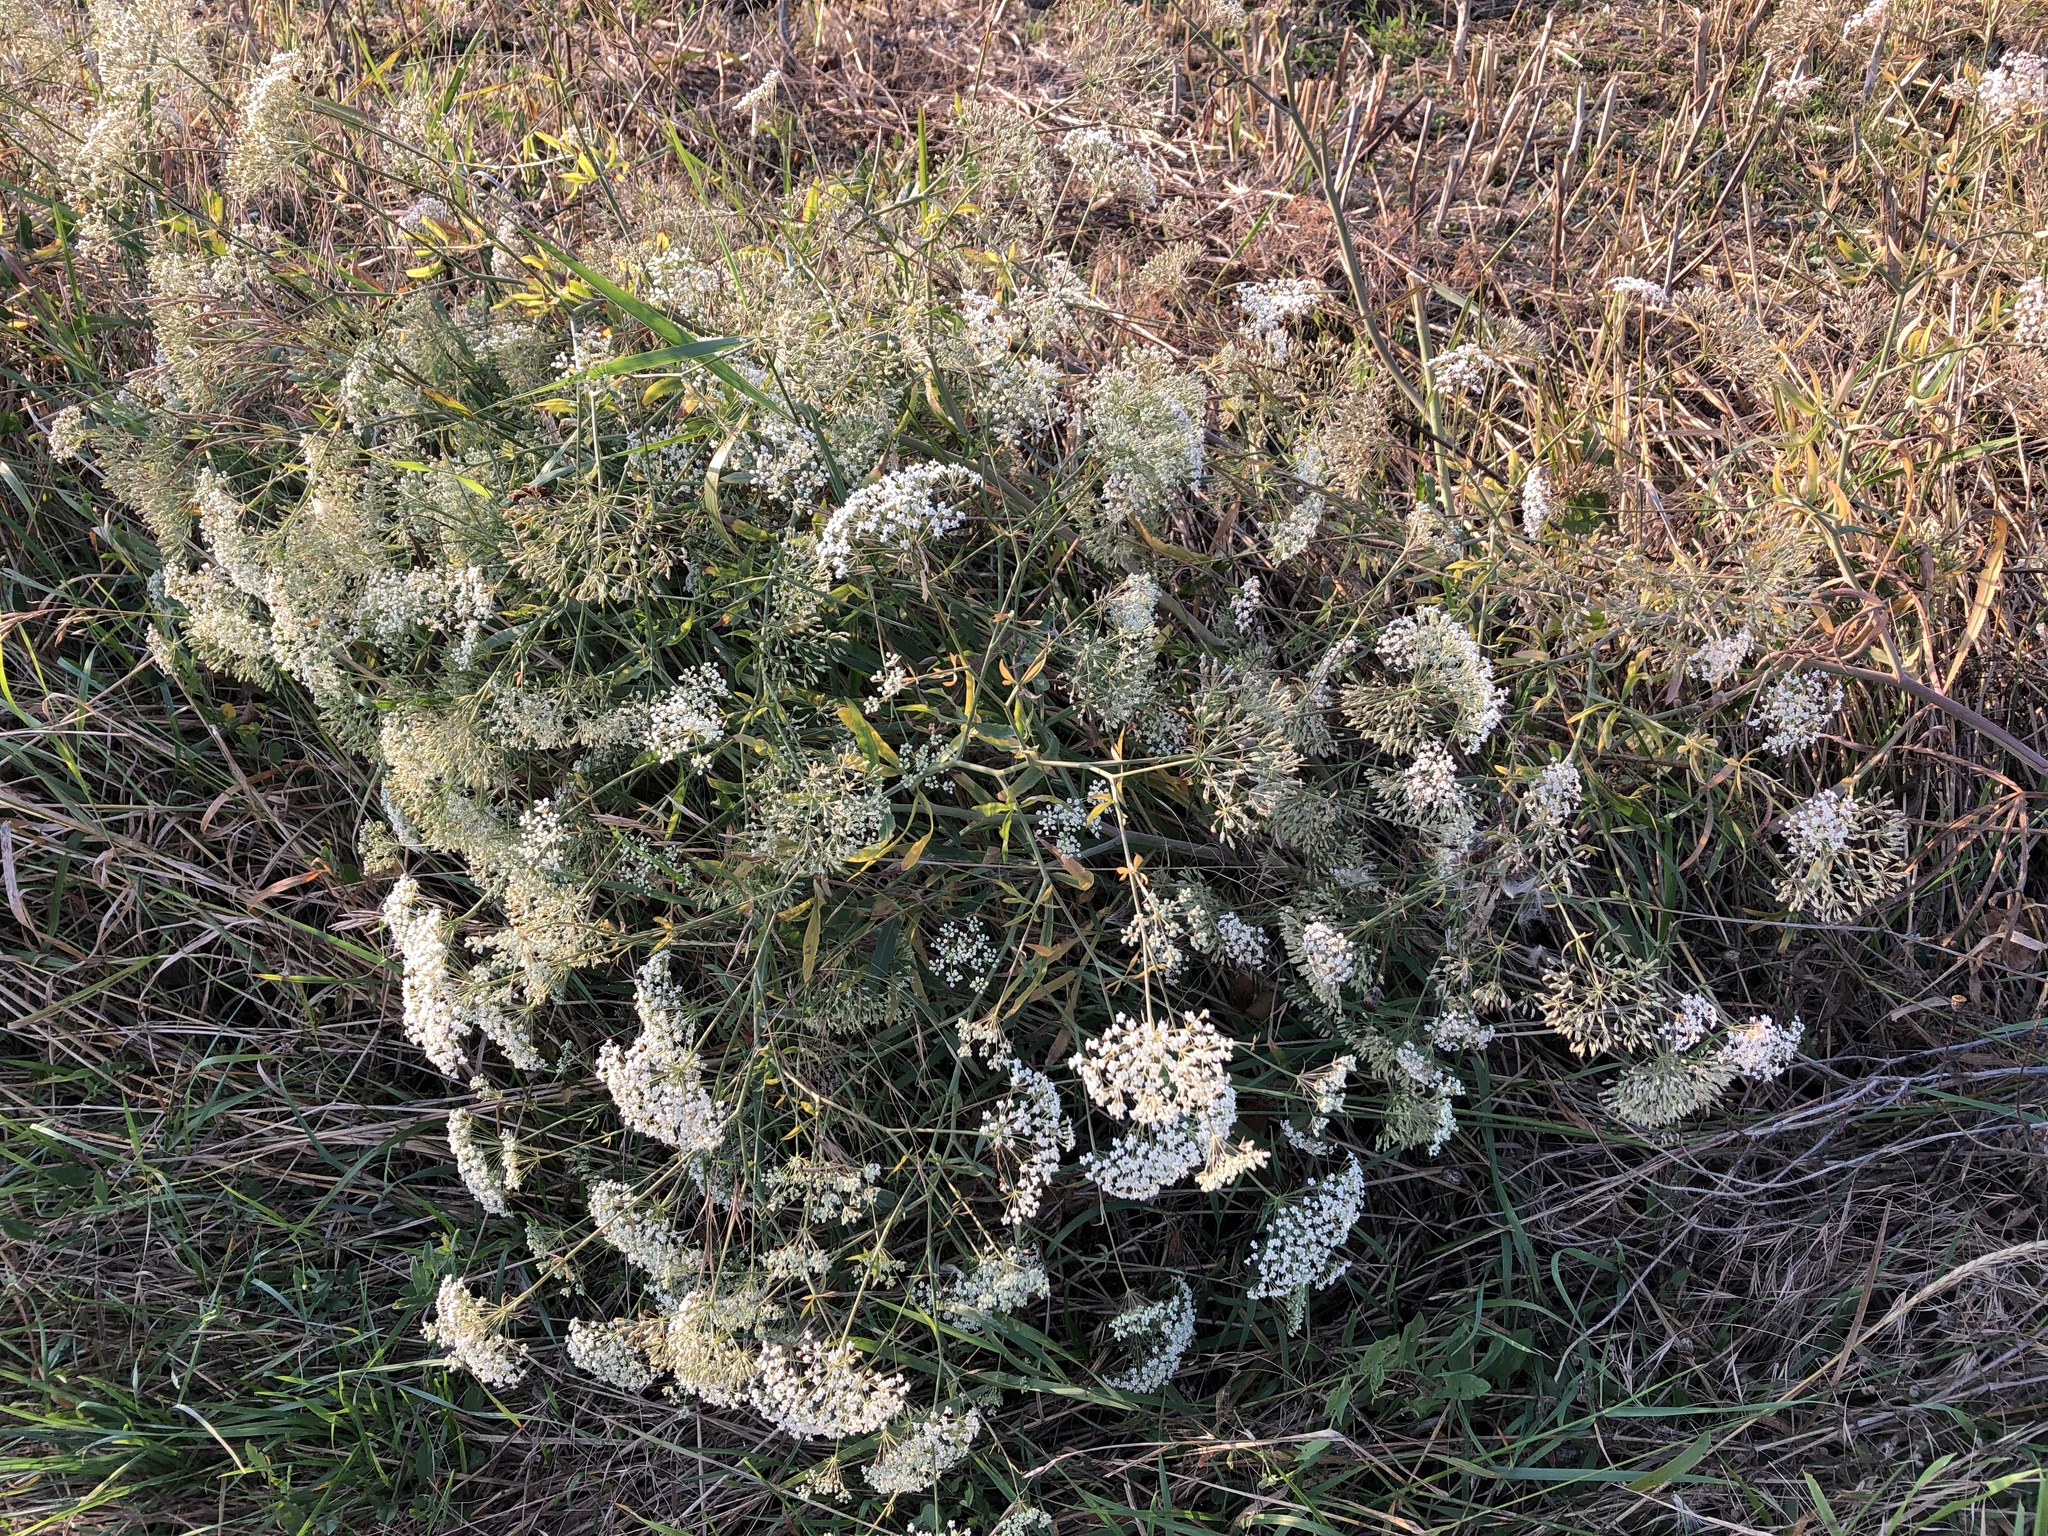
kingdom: Plantae
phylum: Tracheophyta
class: Magnoliopsida
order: Apiales
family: Apiaceae
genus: Falcaria
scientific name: Falcaria vulgaris
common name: Longleaf
